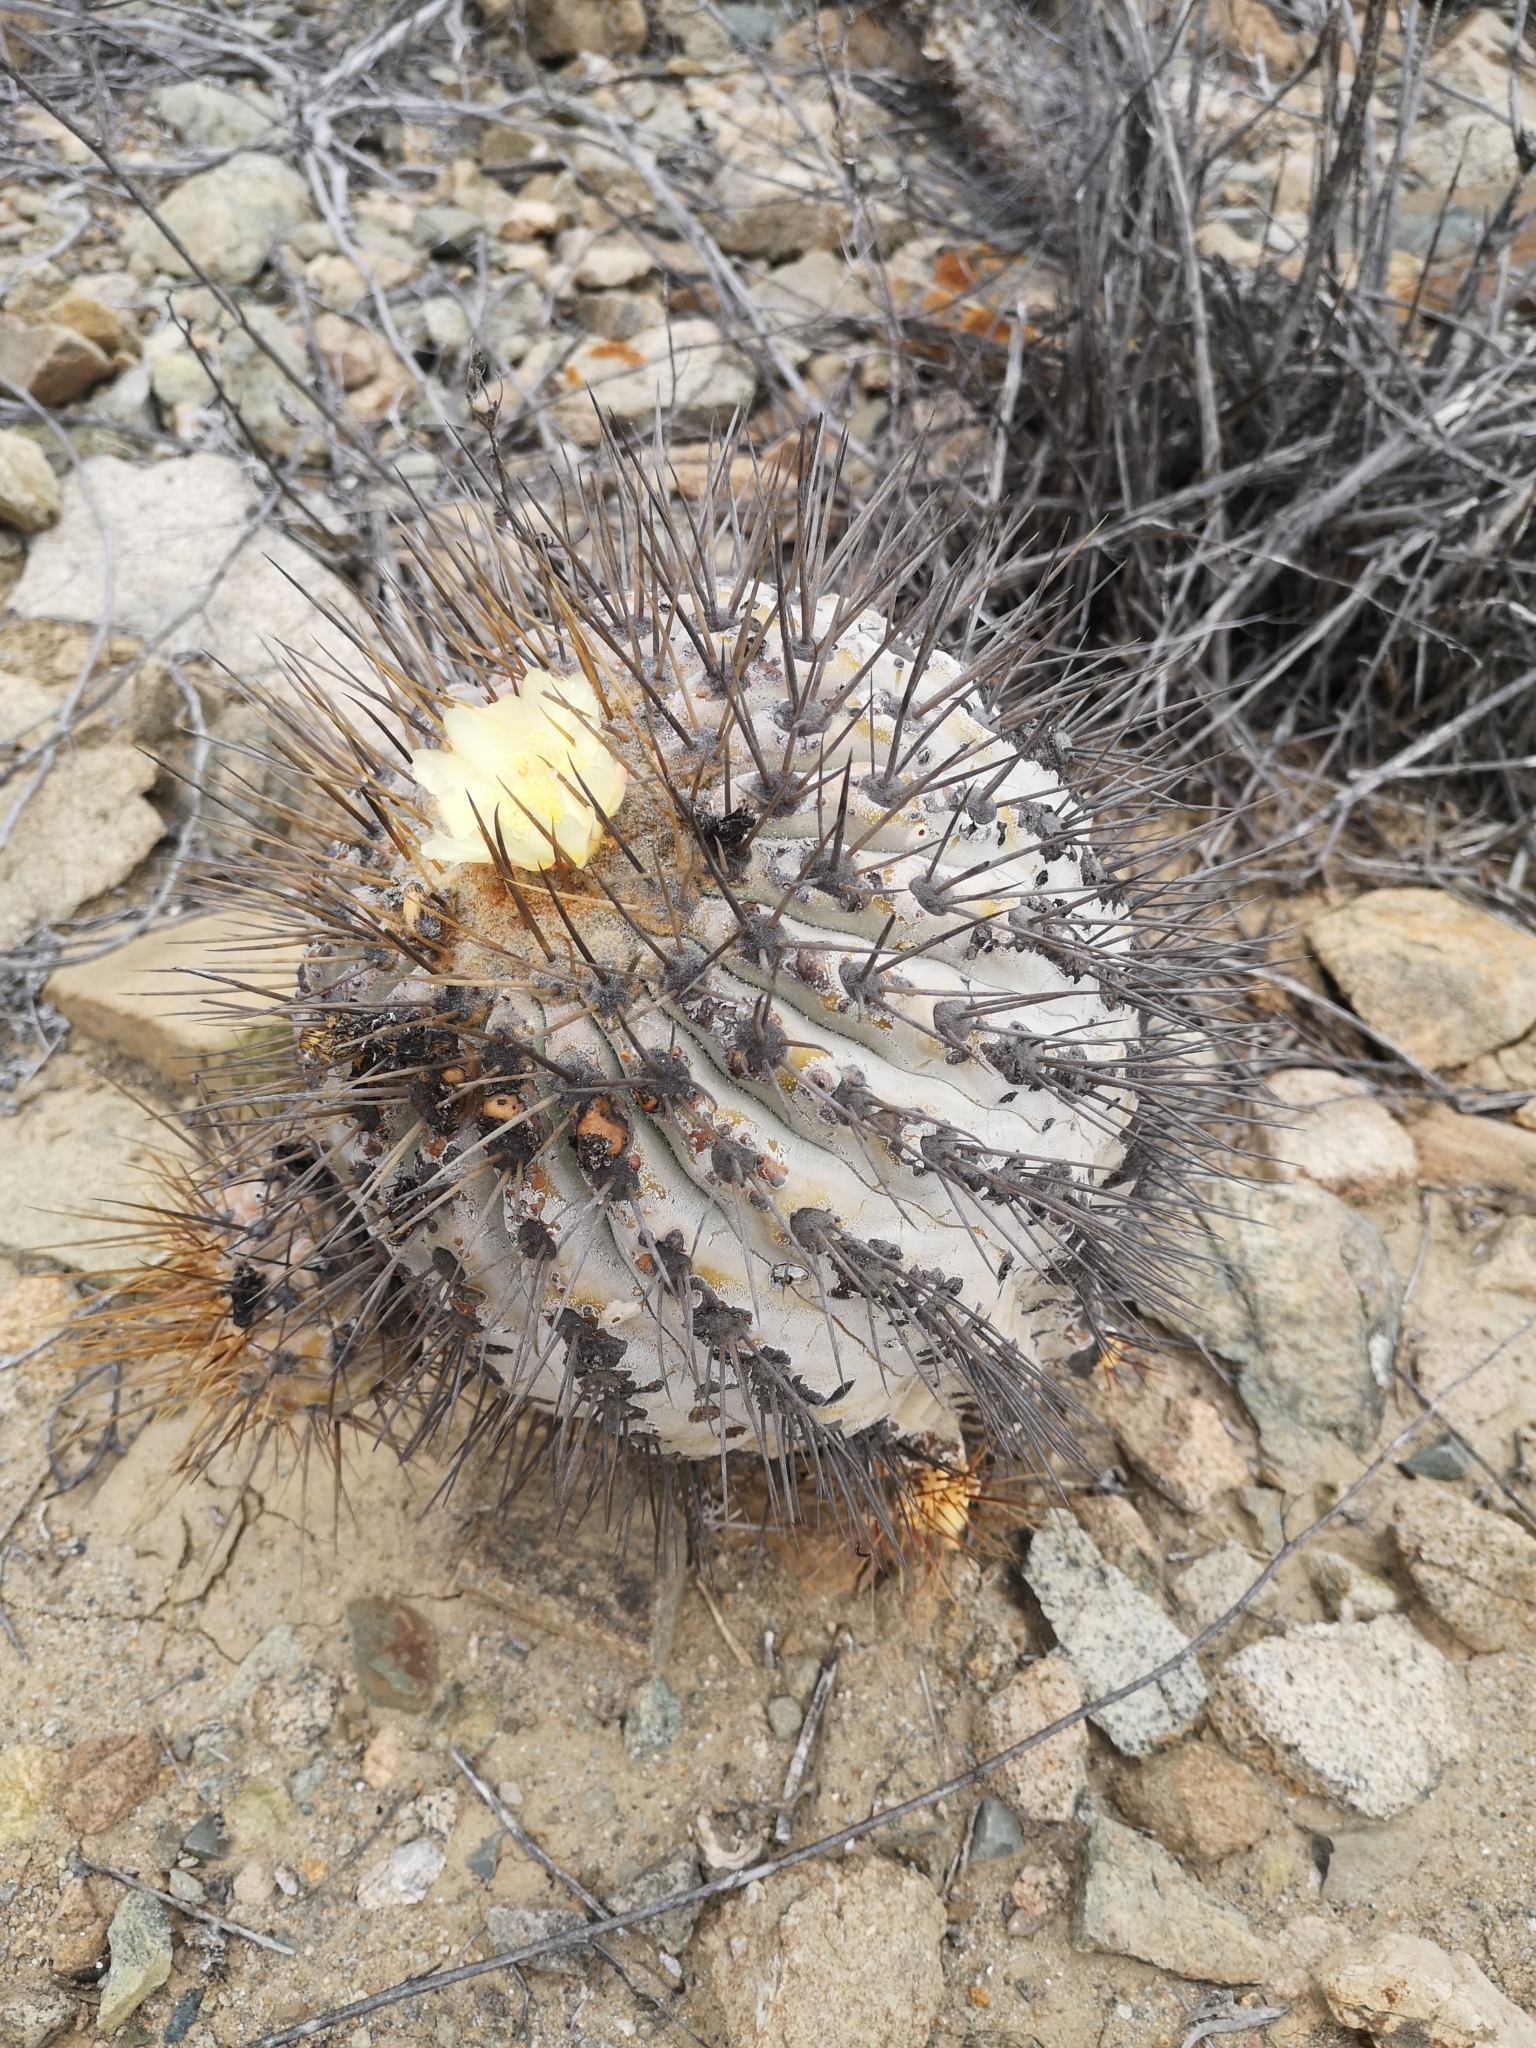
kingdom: Plantae
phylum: Tracheophyta
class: Magnoliopsida
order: Caryophyllales
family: Cactaceae
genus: Copiapoa
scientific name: Copiapoa gigantea
